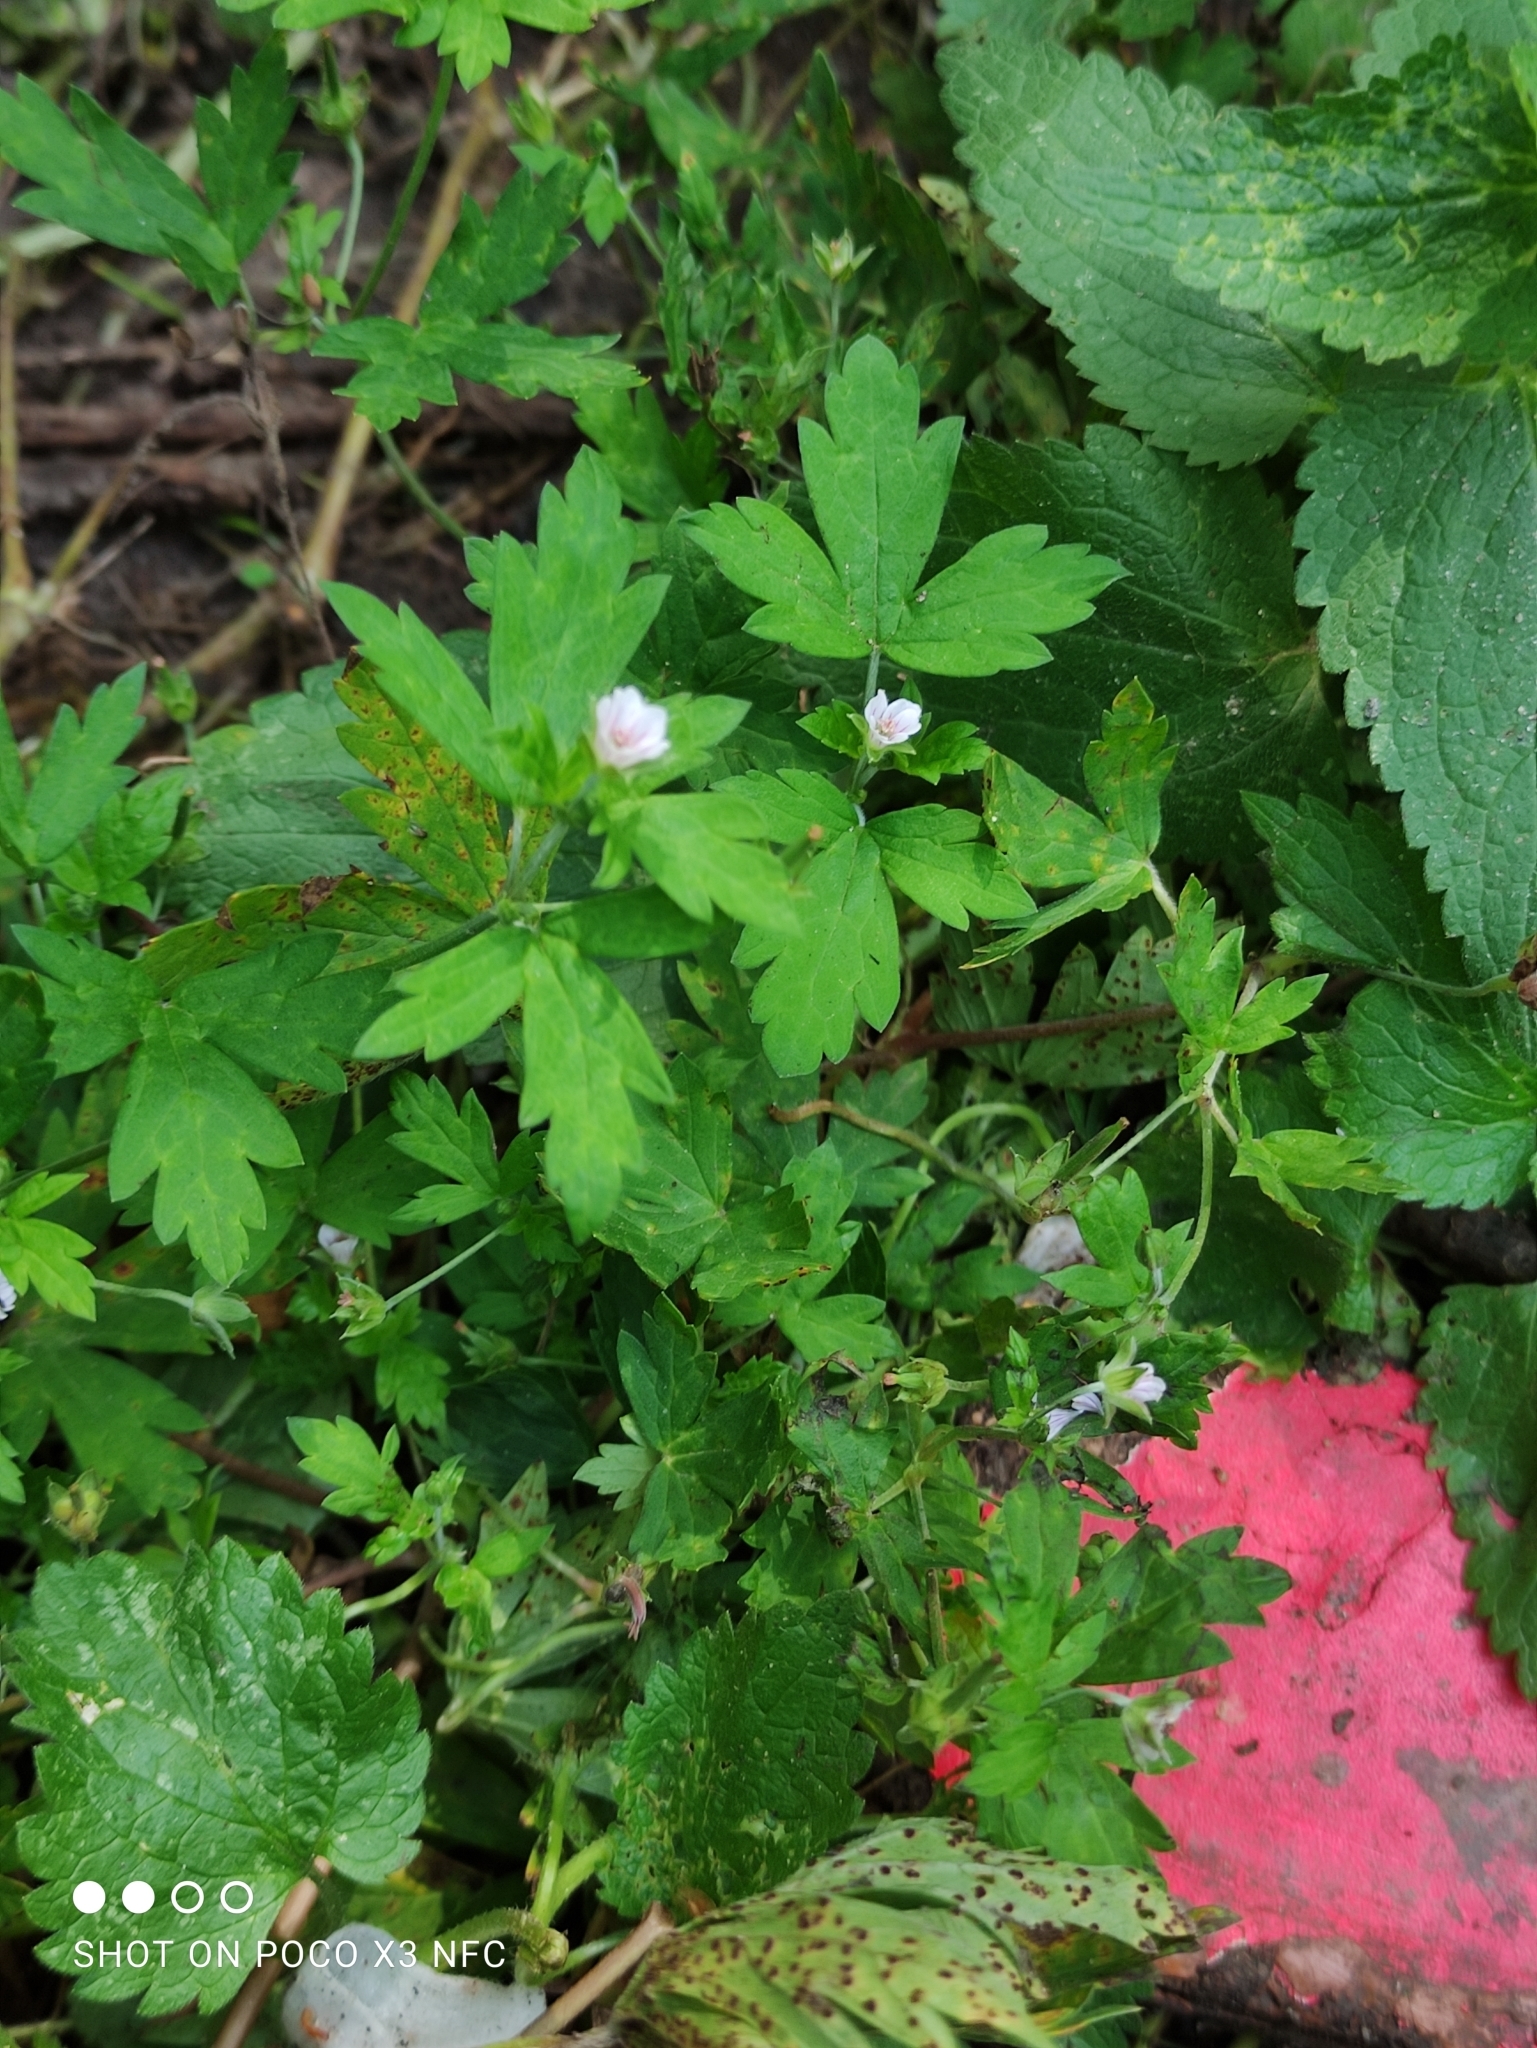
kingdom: Plantae
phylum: Tracheophyta
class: Magnoliopsida
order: Geraniales
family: Geraniaceae
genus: Geranium
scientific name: Geranium sibiricum
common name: Siberian crane's-bill
